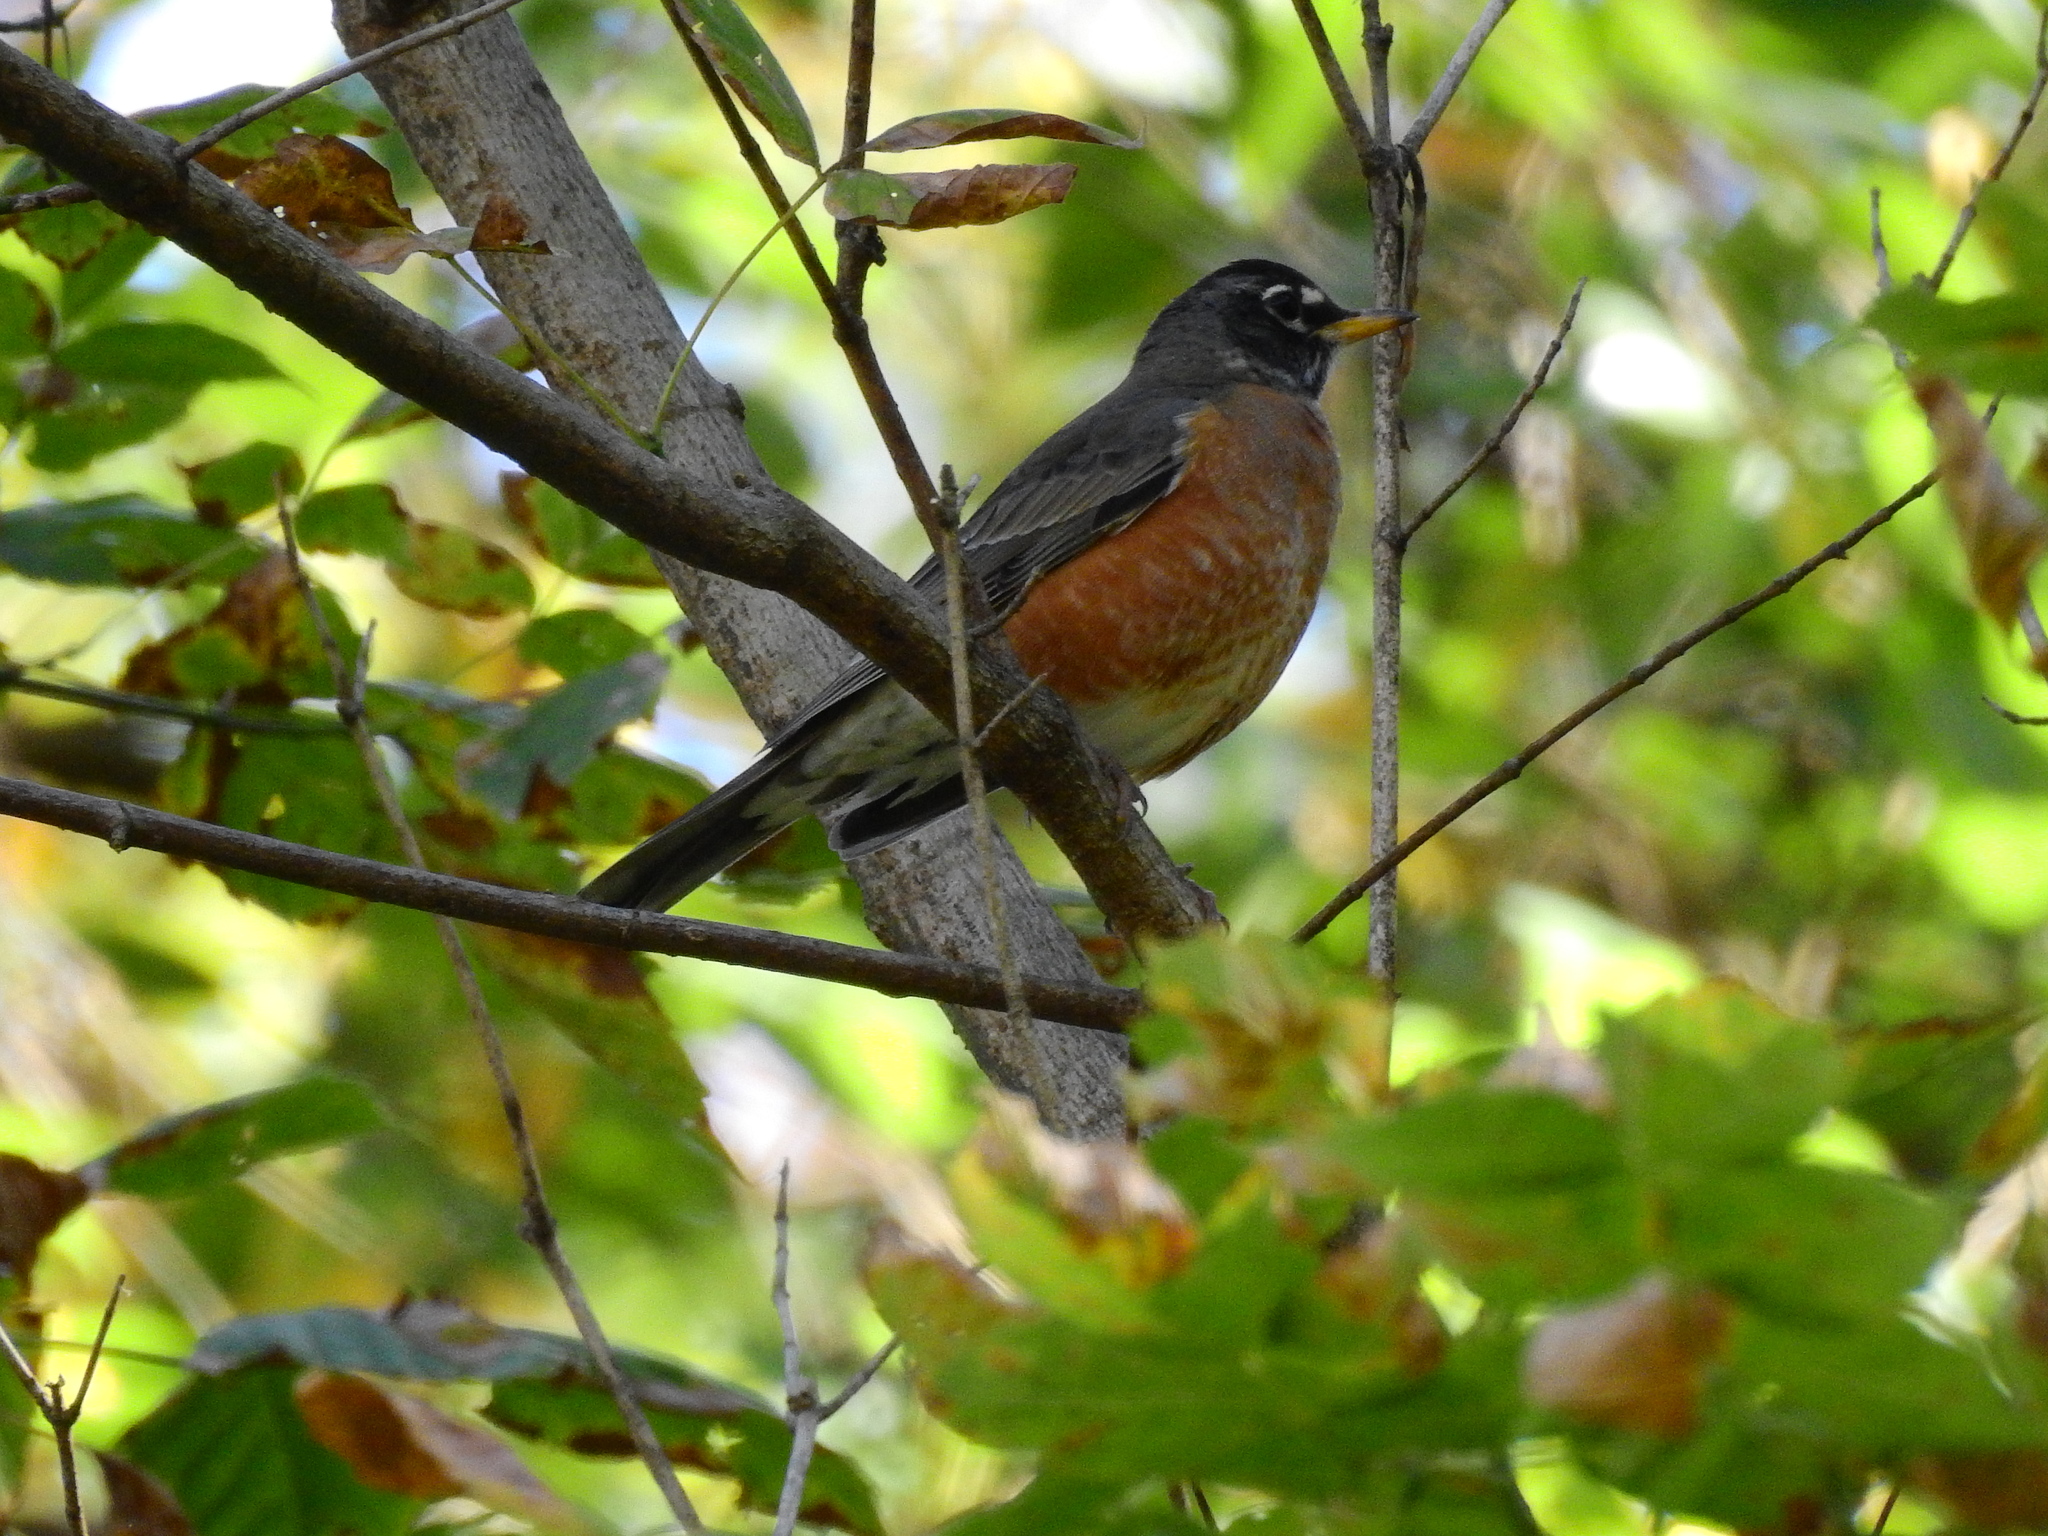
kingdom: Animalia
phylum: Chordata
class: Aves
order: Passeriformes
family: Turdidae
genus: Turdus
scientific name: Turdus migratorius
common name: American robin
